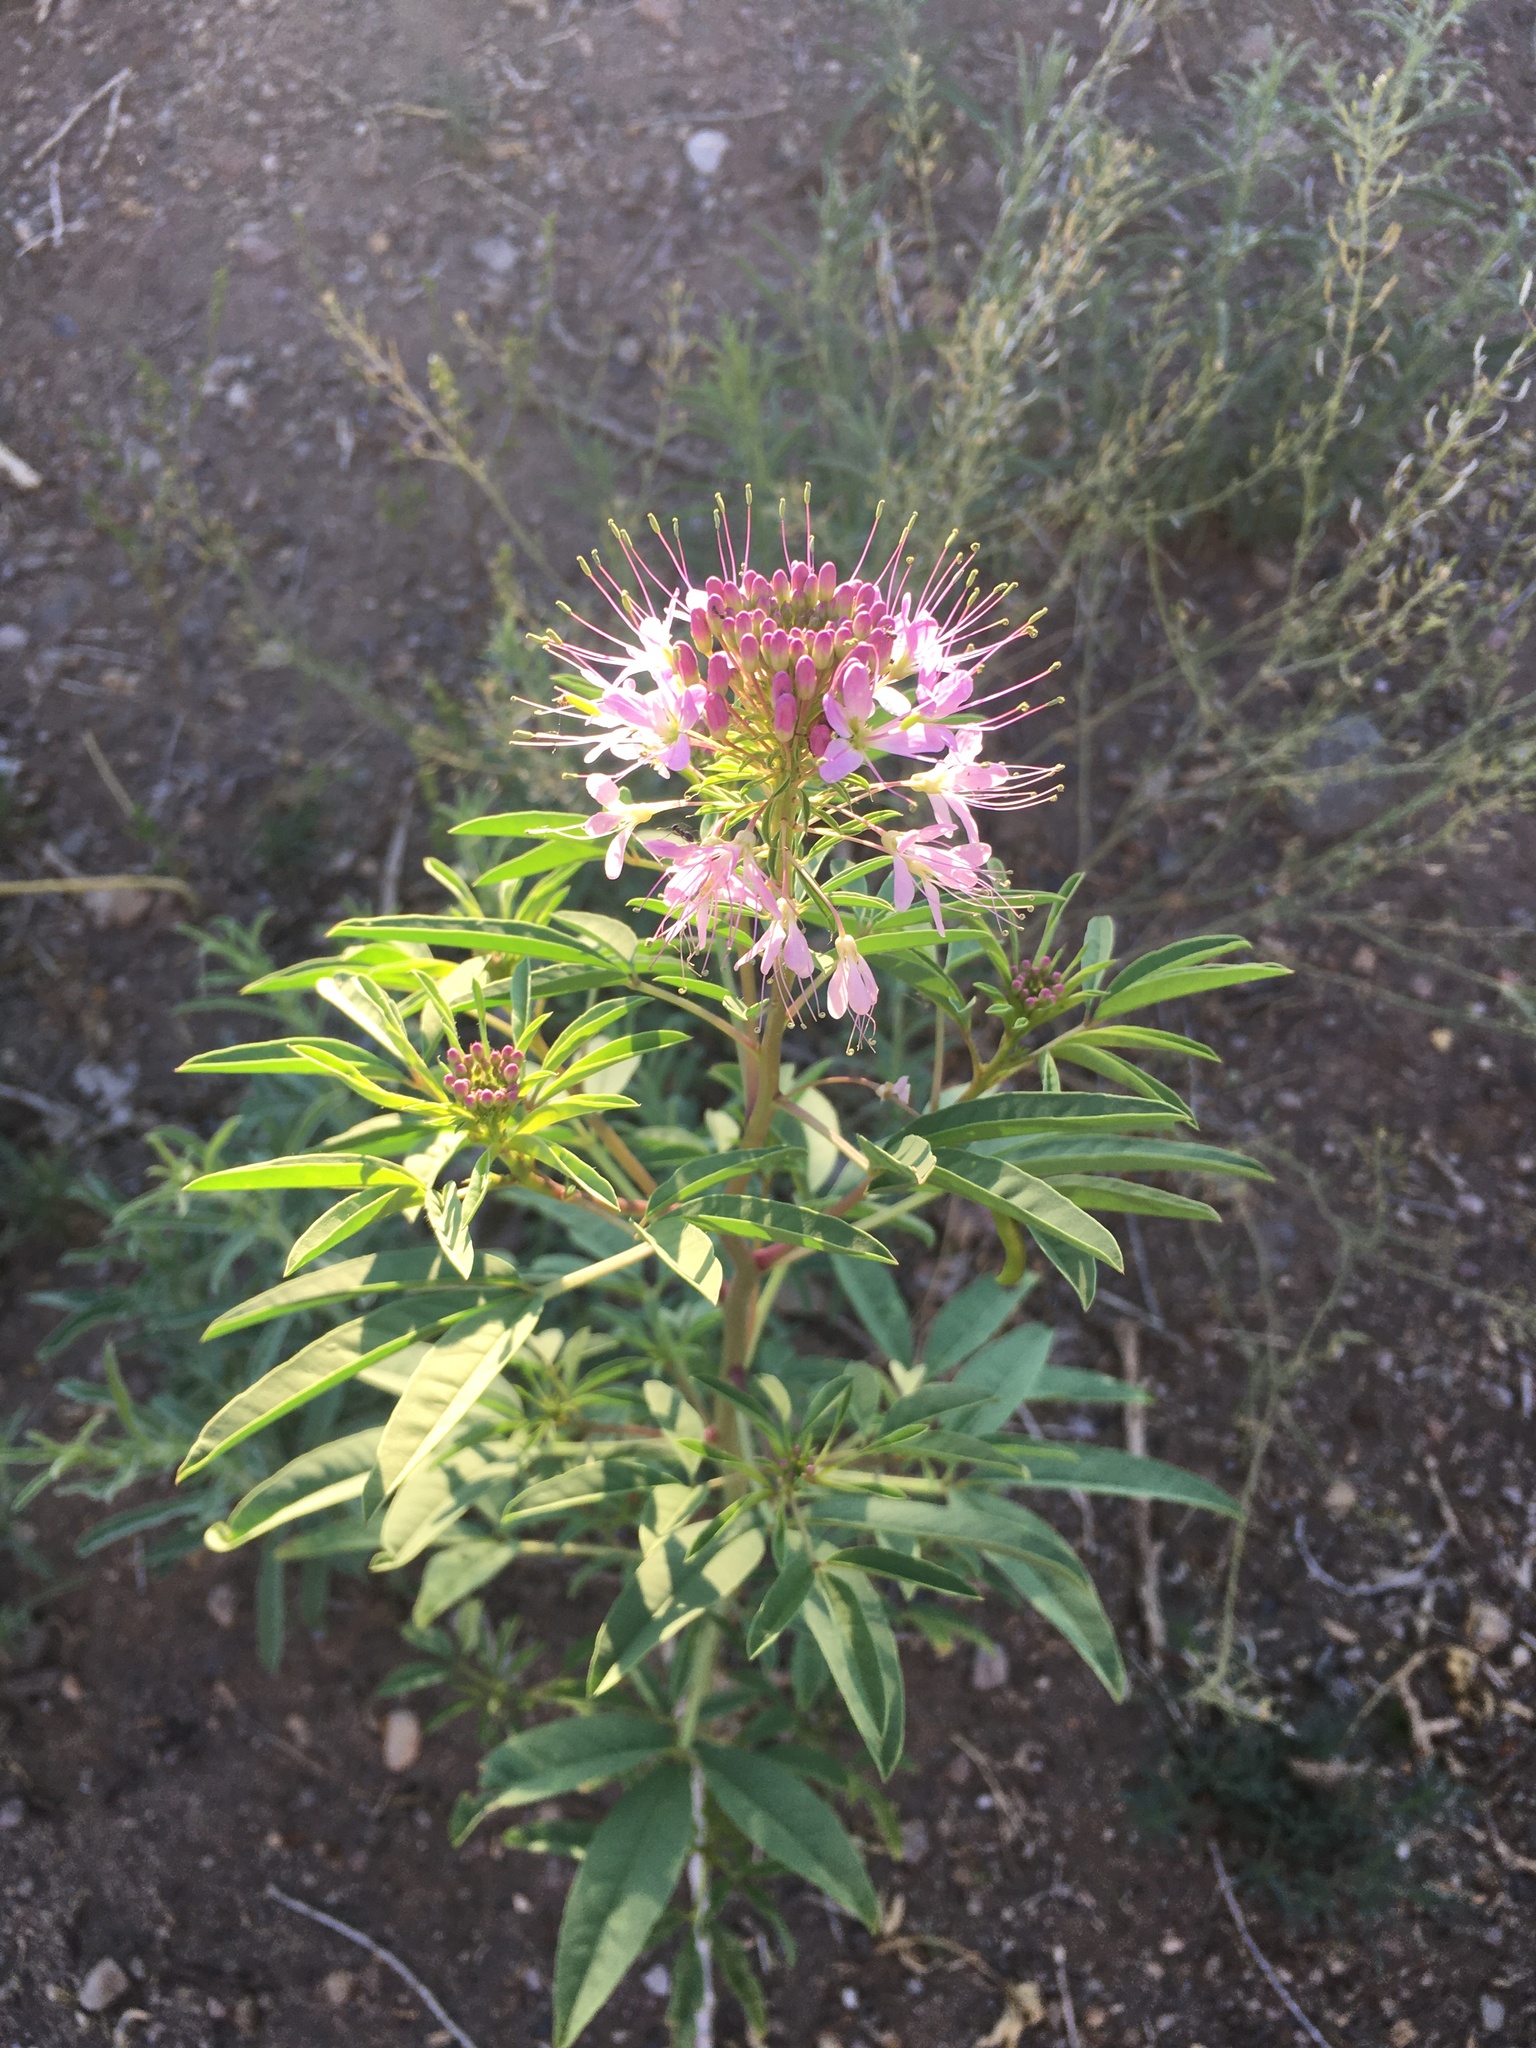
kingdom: Plantae
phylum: Tracheophyta
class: Magnoliopsida
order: Brassicales
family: Cleomaceae
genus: Cleomella
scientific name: Cleomella serrulata
